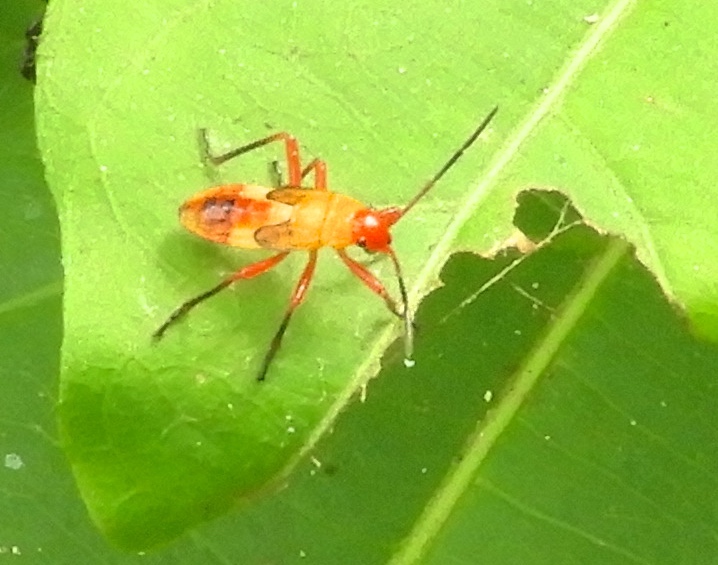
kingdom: Animalia
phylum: Arthropoda
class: Insecta
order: Hemiptera
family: Lygaeidae
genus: Oncopeltus
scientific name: Oncopeltus
